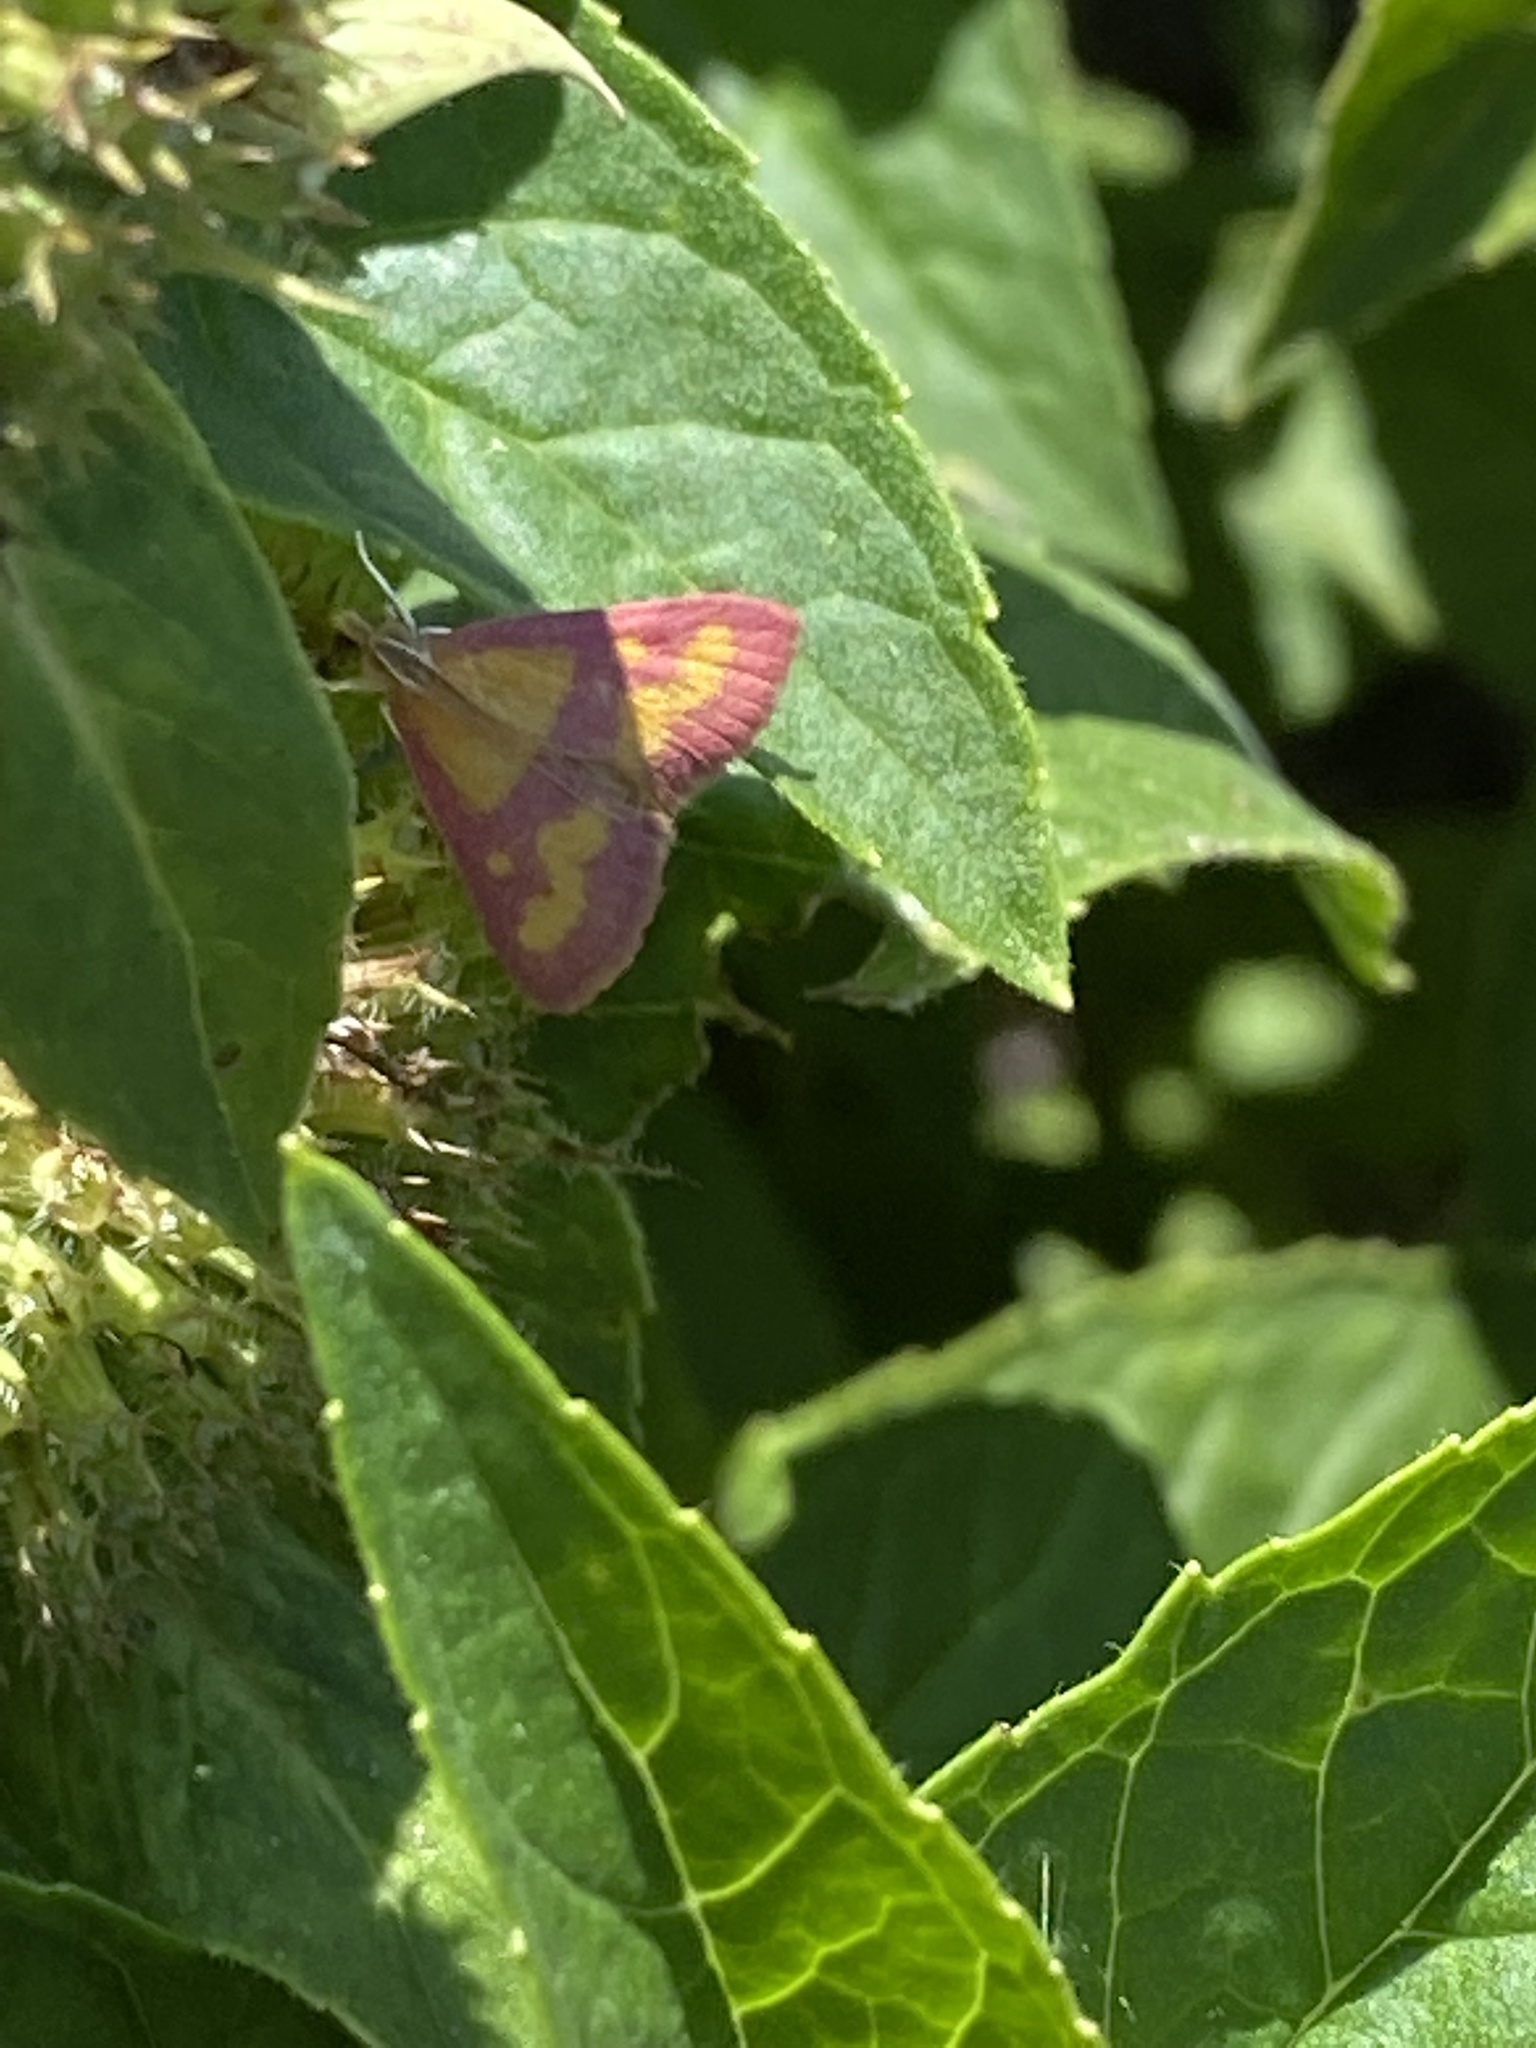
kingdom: Animalia
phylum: Arthropoda
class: Insecta
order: Lepidoptera
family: Crambidae
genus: Pyrausta
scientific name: Pyrausta laticlavia
